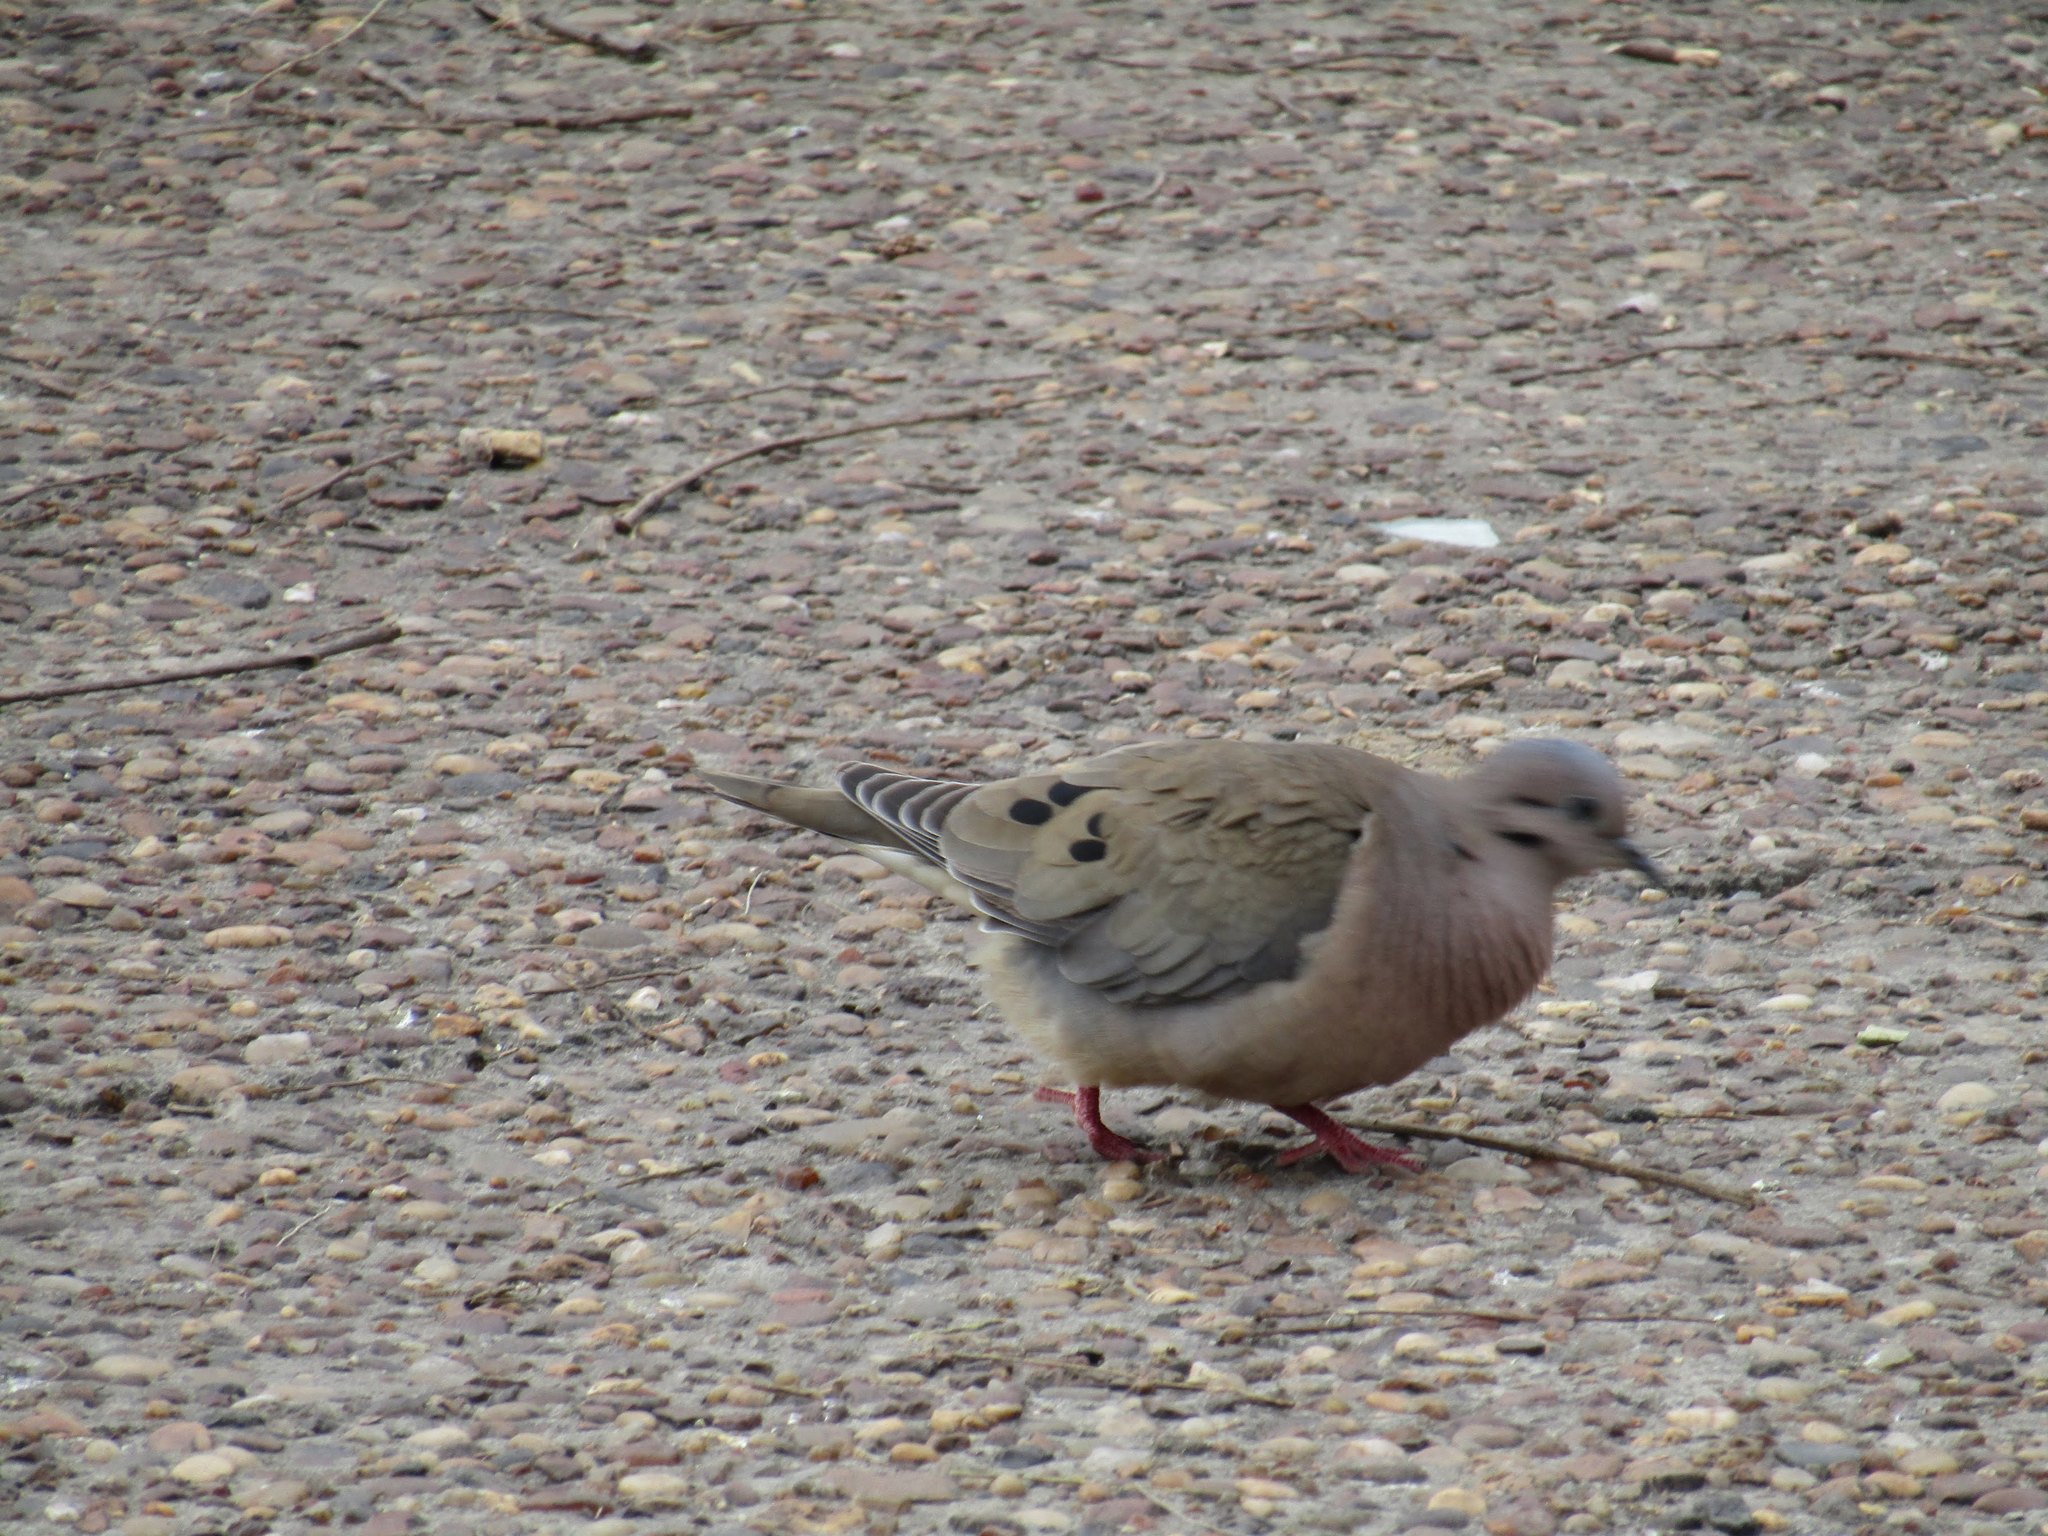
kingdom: Animalia
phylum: Chordata
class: Aves
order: Columbiformes
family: Columbidae
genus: Zenaida
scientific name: Zenaida auriculata
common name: Eared dove
